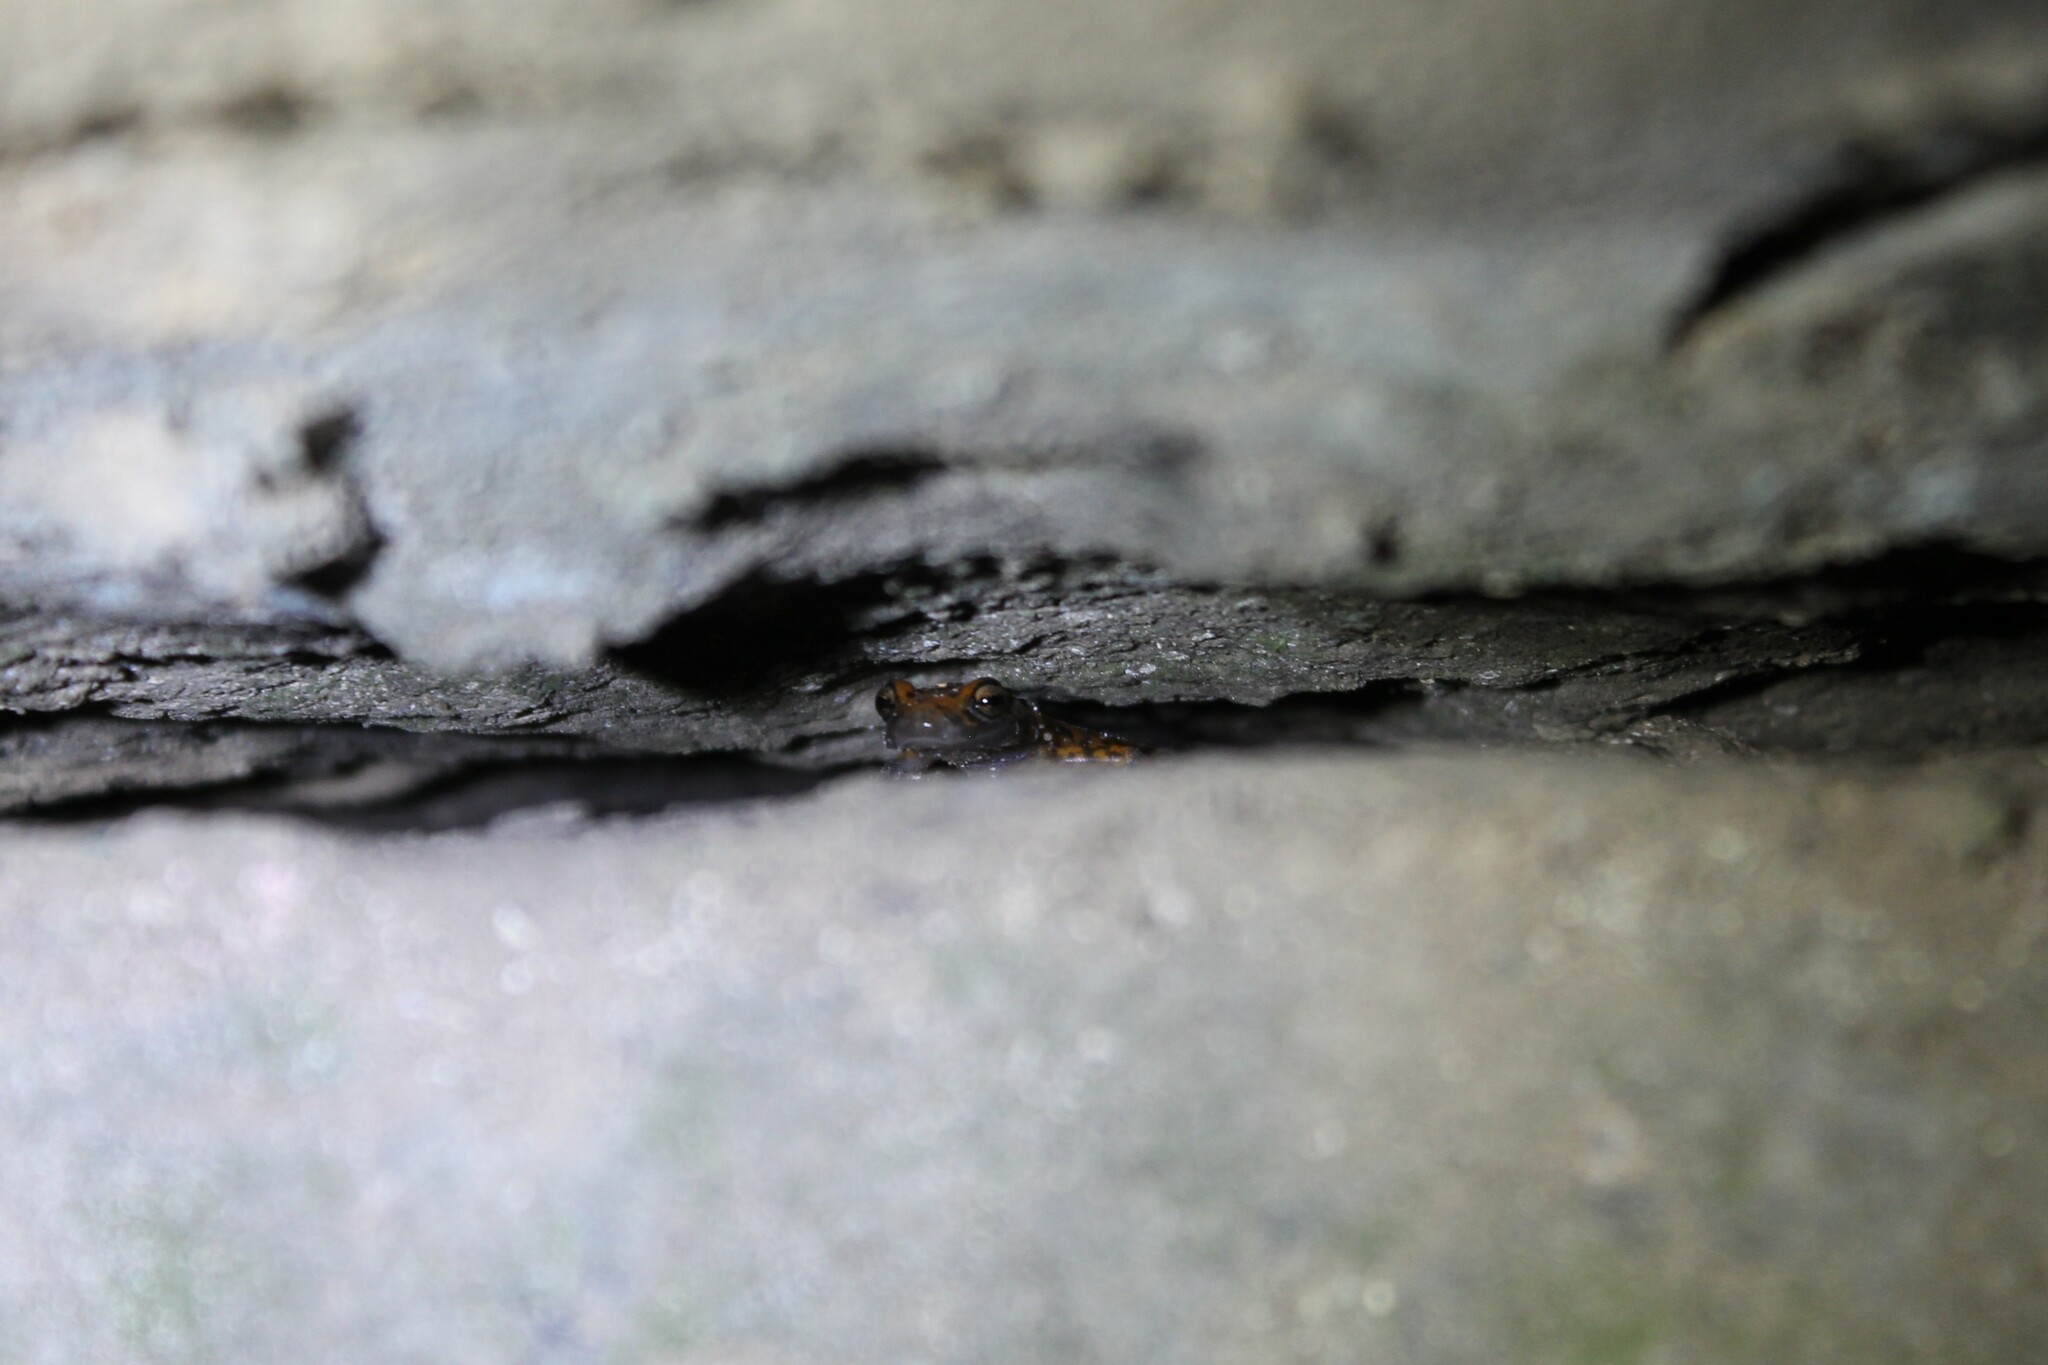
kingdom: Animalia
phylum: Chordata
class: Amphibia
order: Caudata
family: Plethodontidae
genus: Eurycea
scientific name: Eurycea lucifuga
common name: Cave salamander
